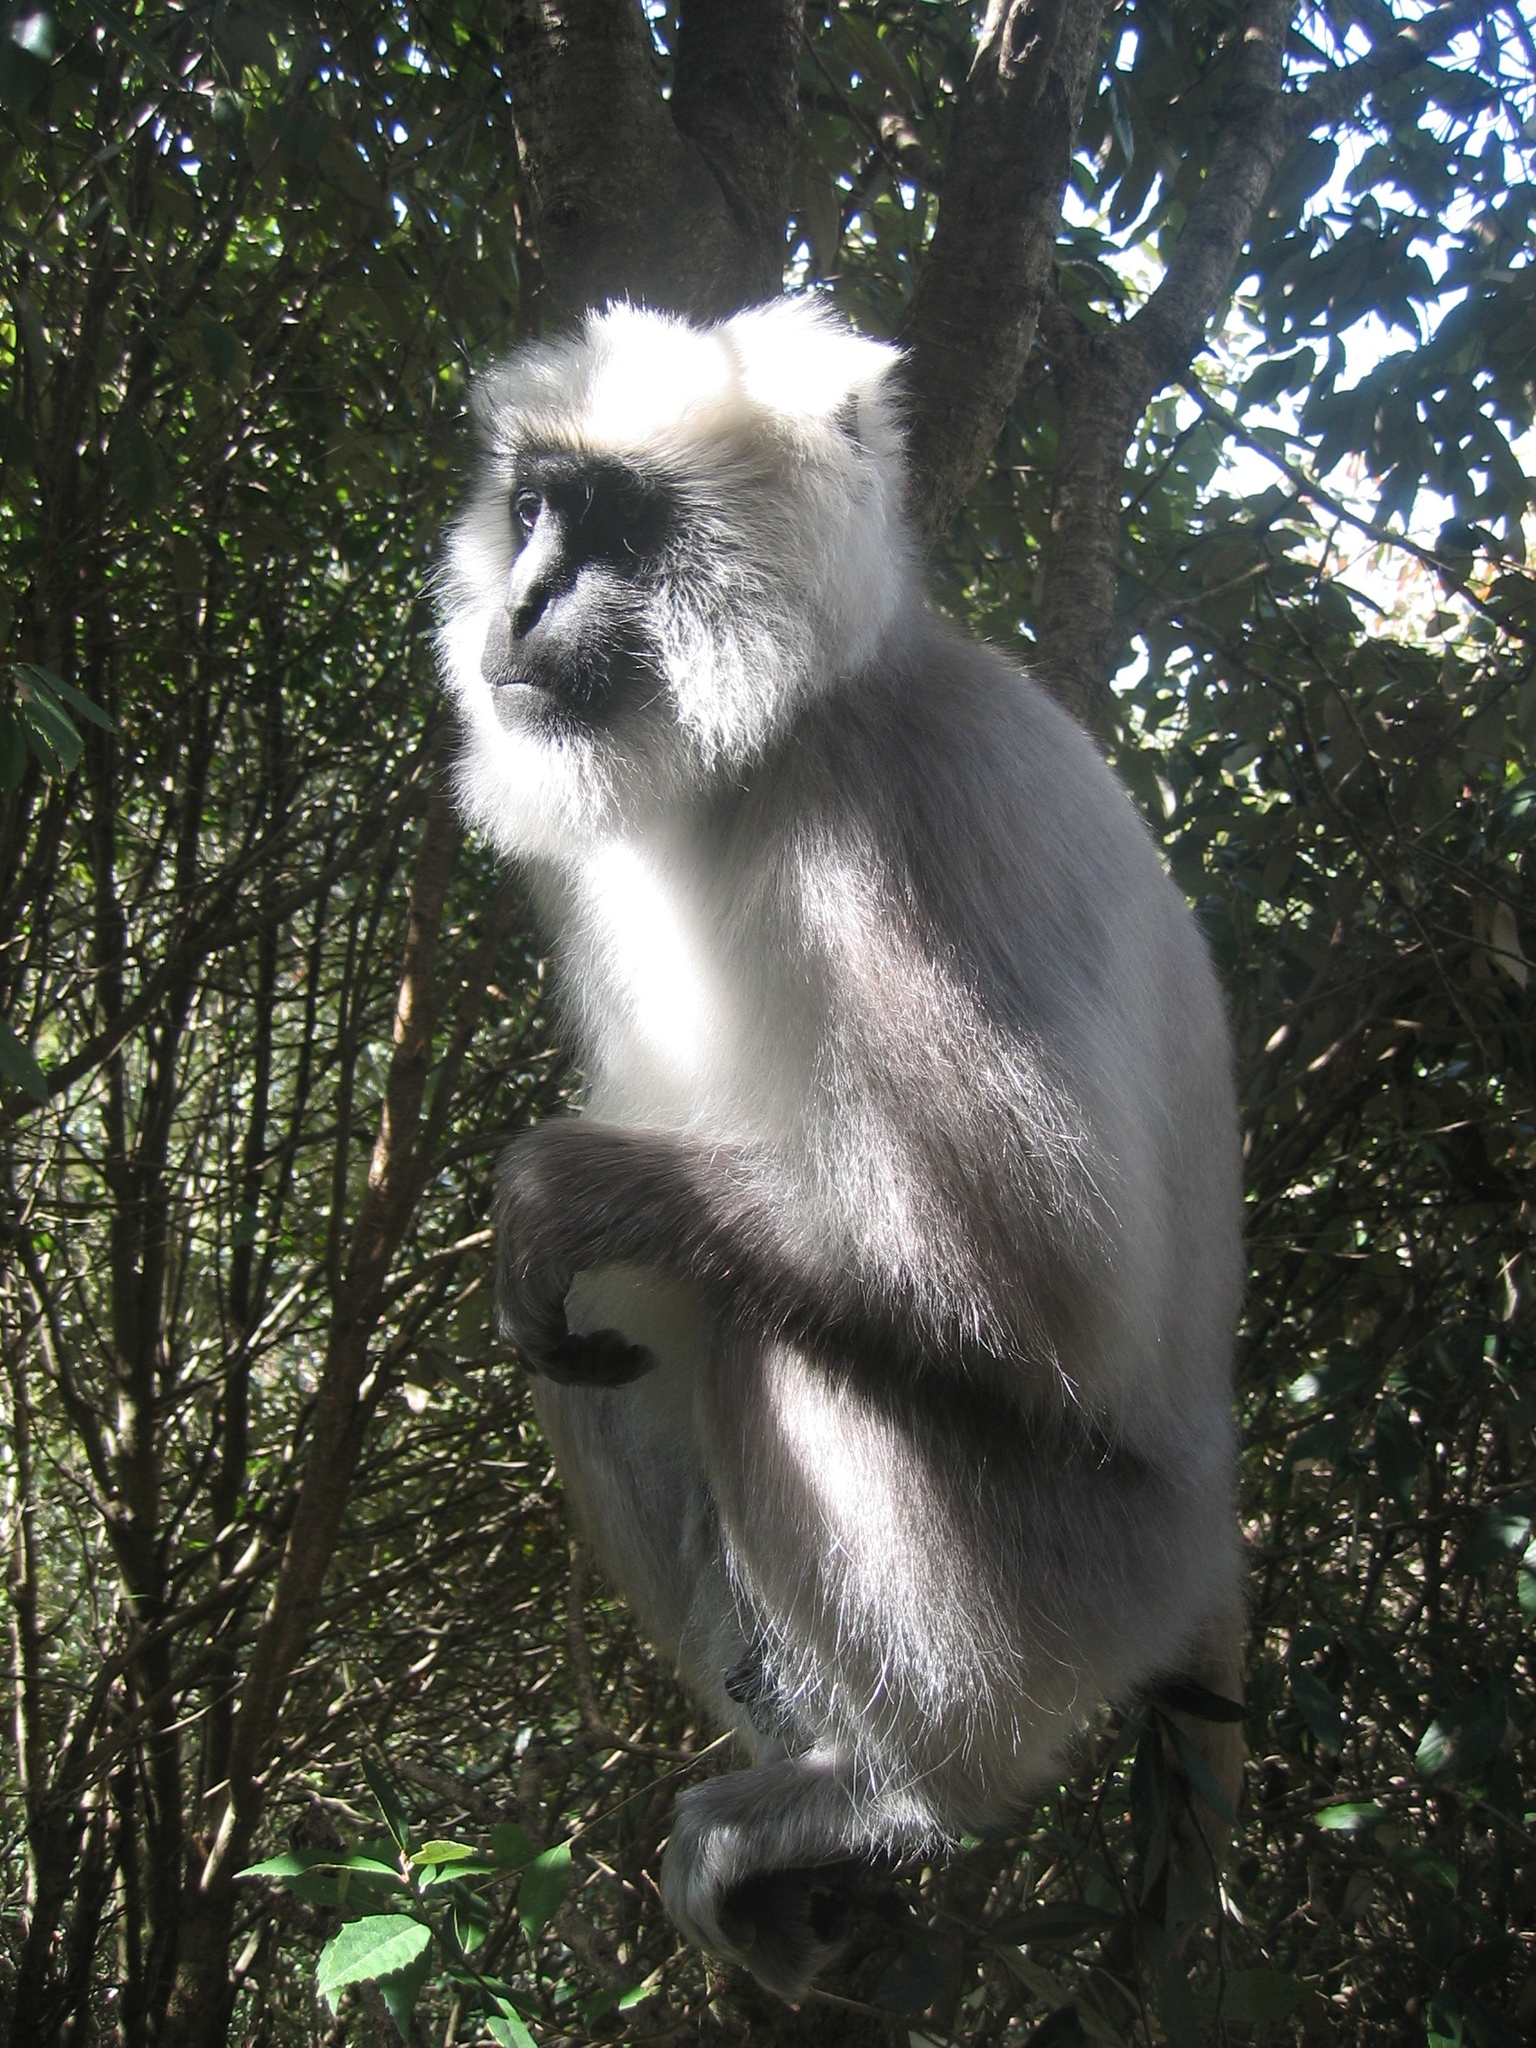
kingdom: Animalia
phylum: Chordata
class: Mammalia
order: Primates
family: Cercopithecidae
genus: Semnopithecus
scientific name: Semnopithecus entellus
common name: Northern plains gray langur
